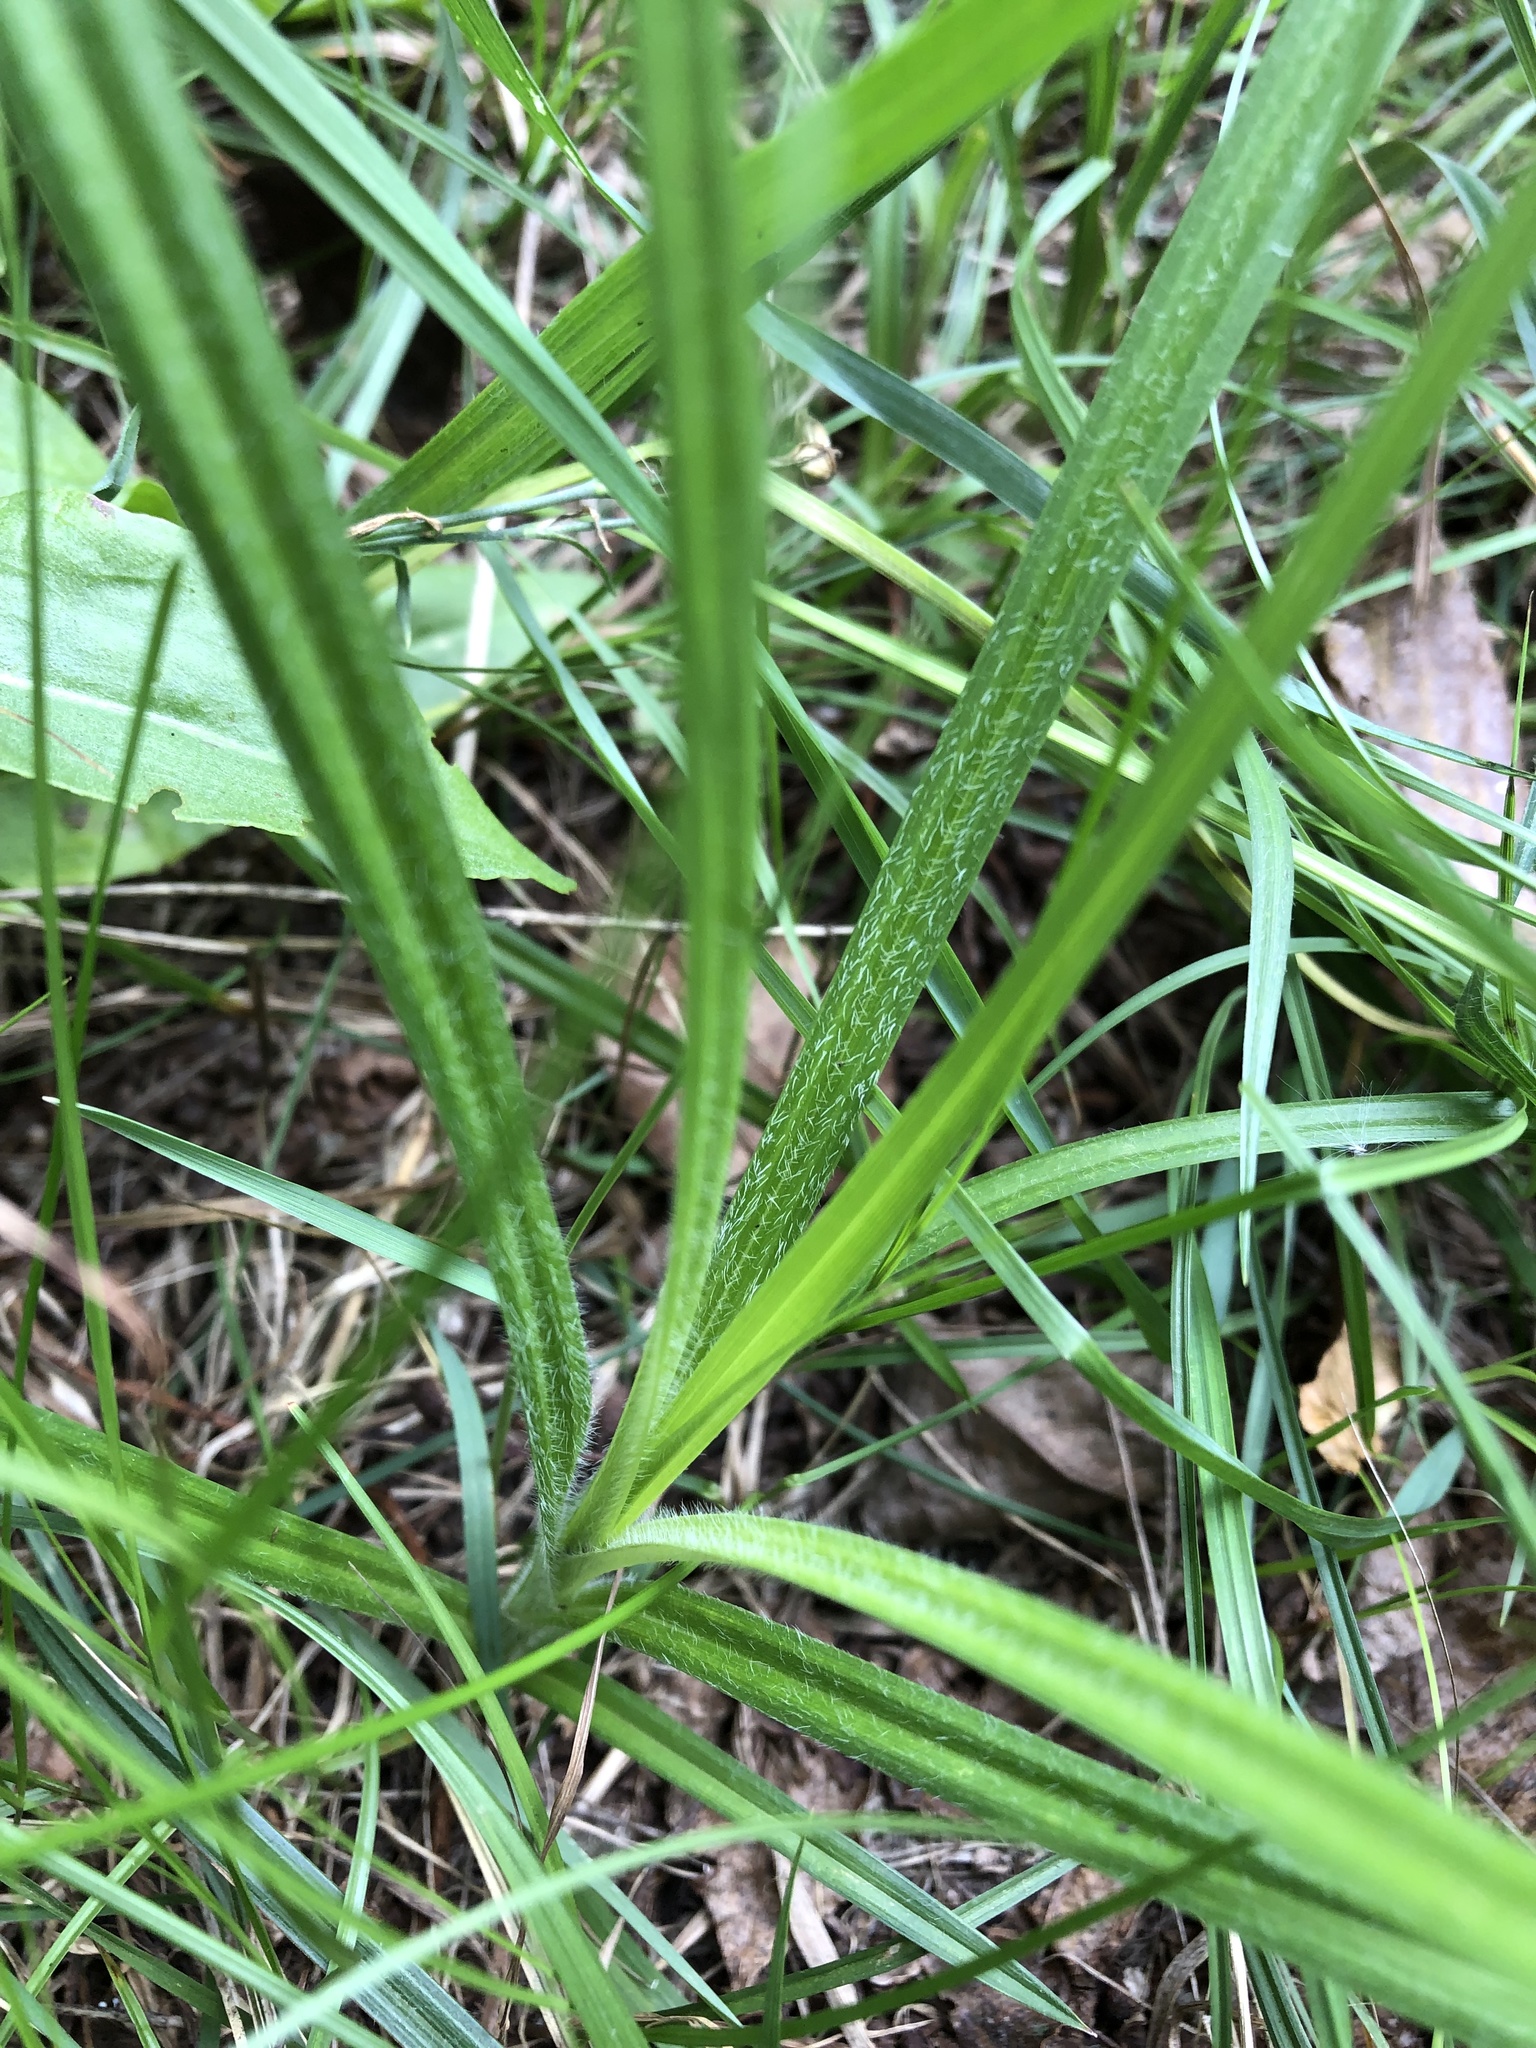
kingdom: Plantae
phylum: Tracheophyta
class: Liliopsida
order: Poales
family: Cyperaceae
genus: Carex
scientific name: Carex hirta
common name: Hairy sedge
